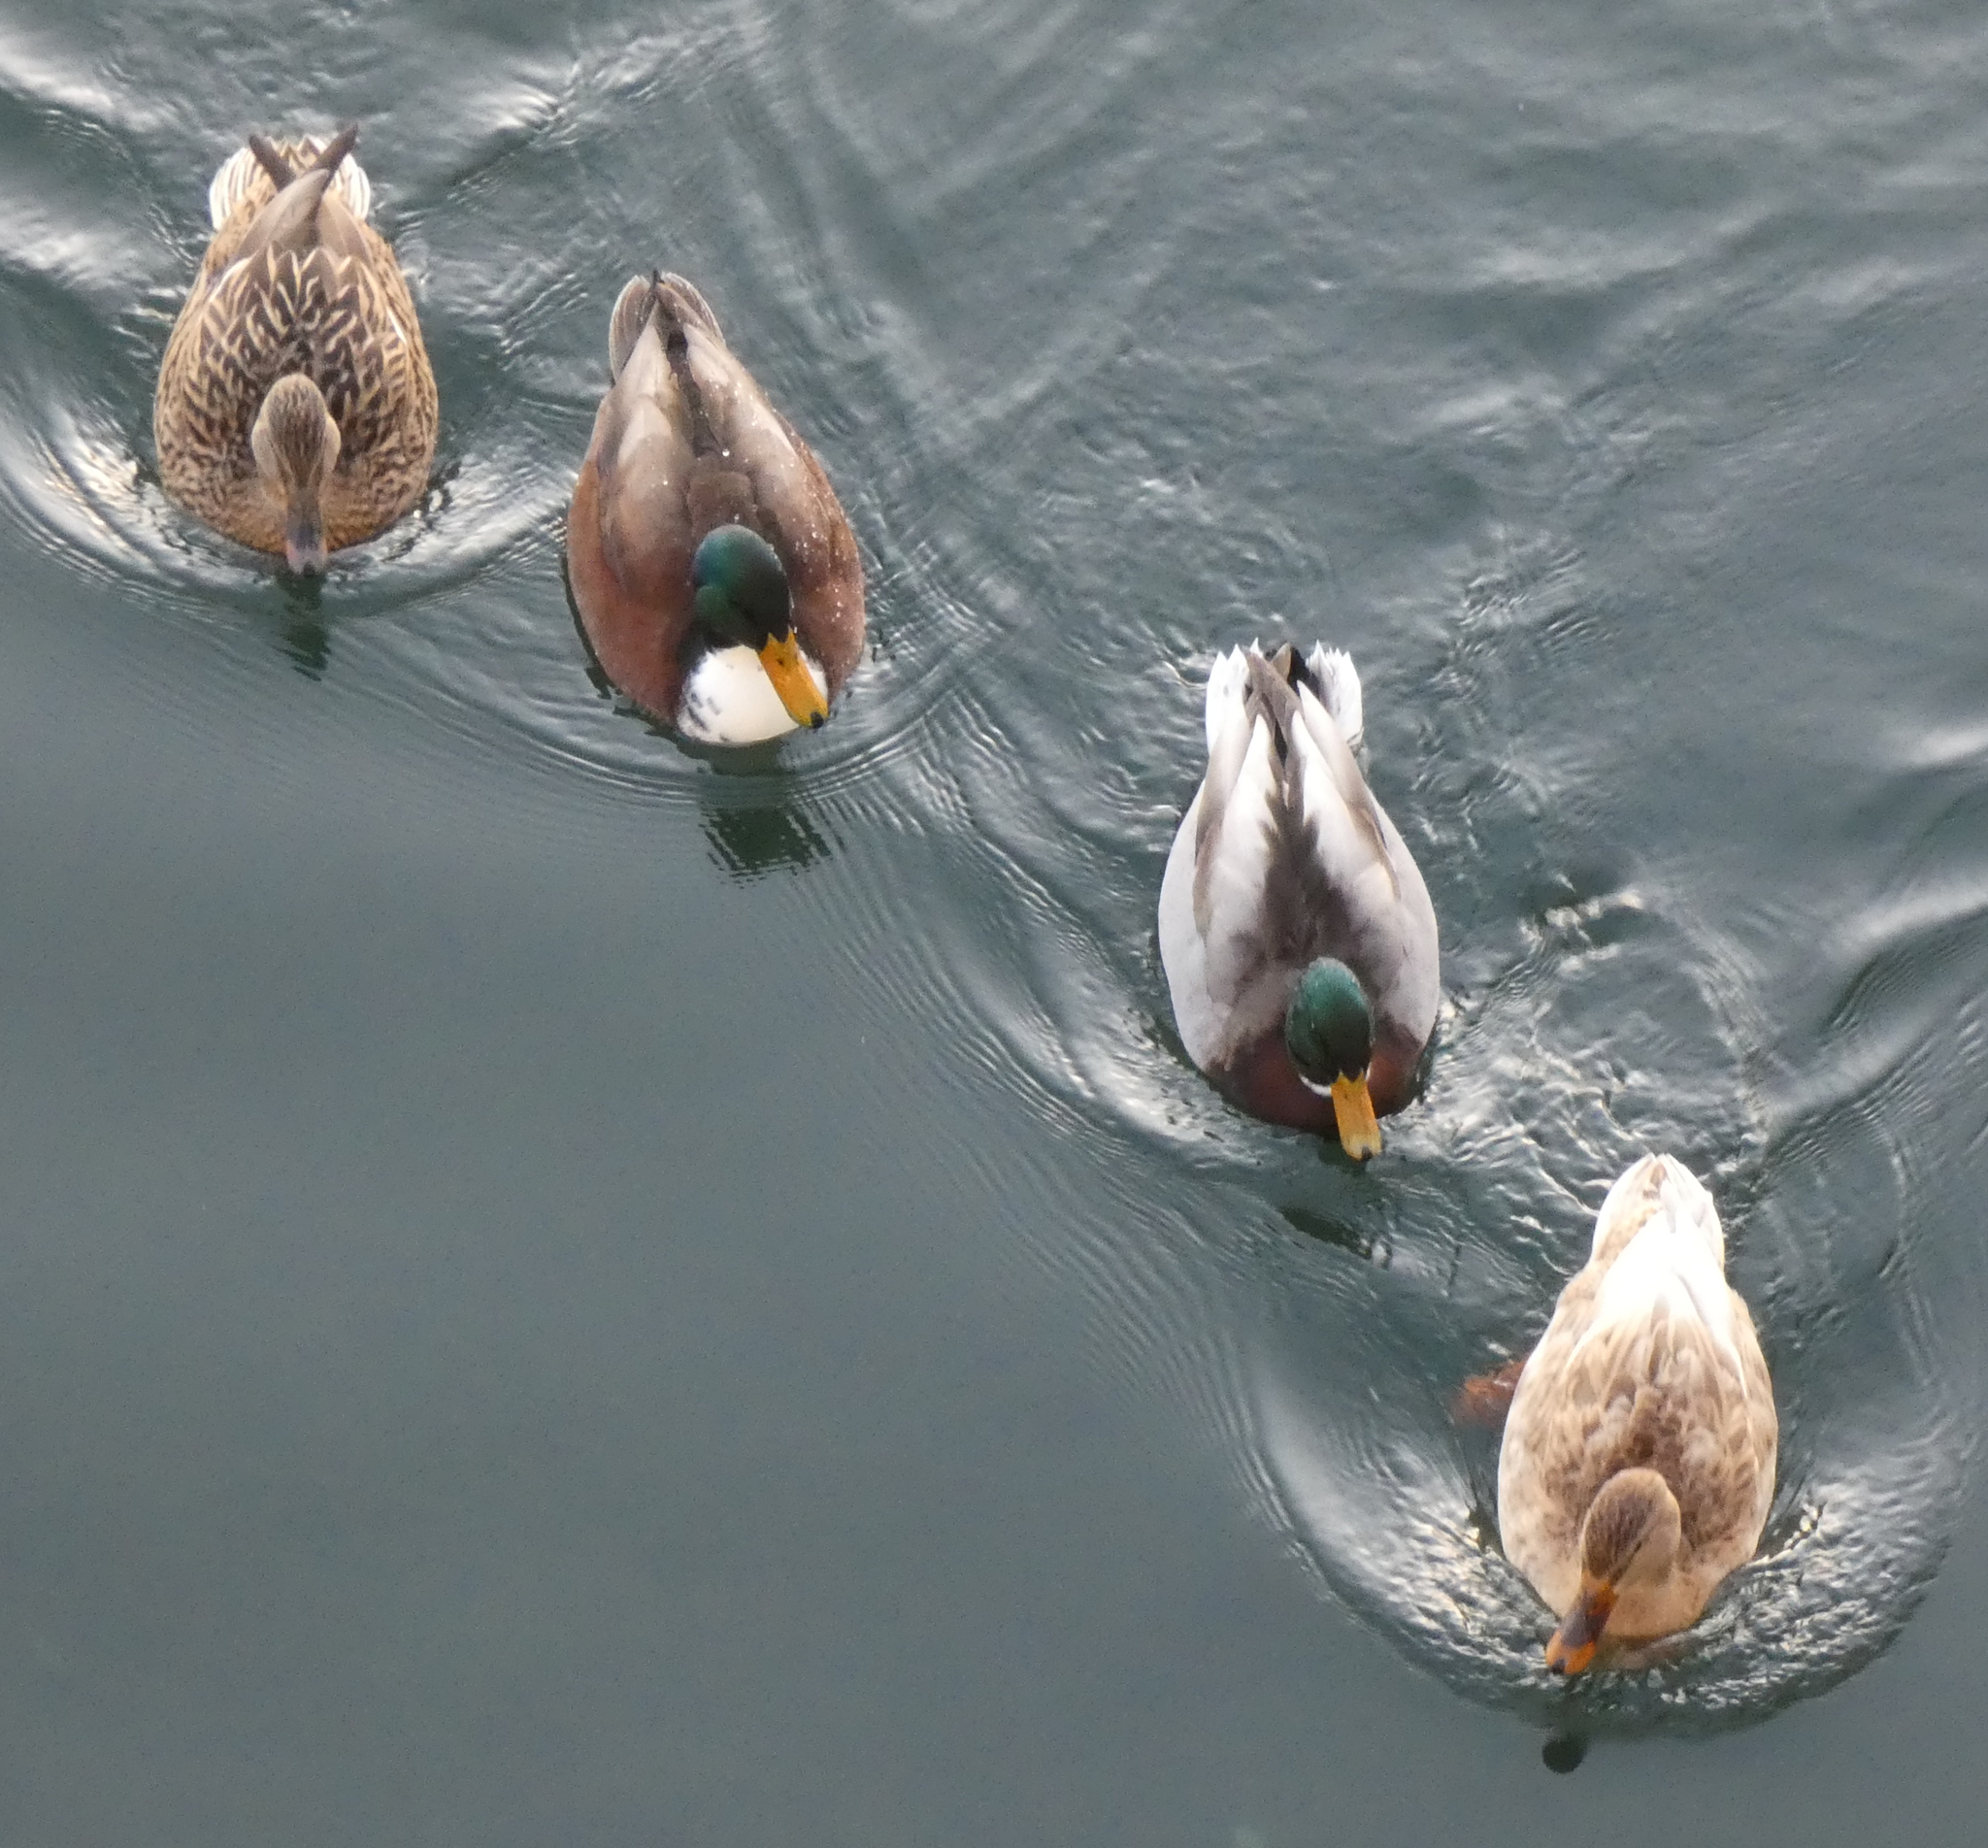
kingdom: Animalia
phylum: Chordata
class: Aves
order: Anseriformes
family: Anatidae
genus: Anas
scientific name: Anas platyrhynchos
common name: Mallard
